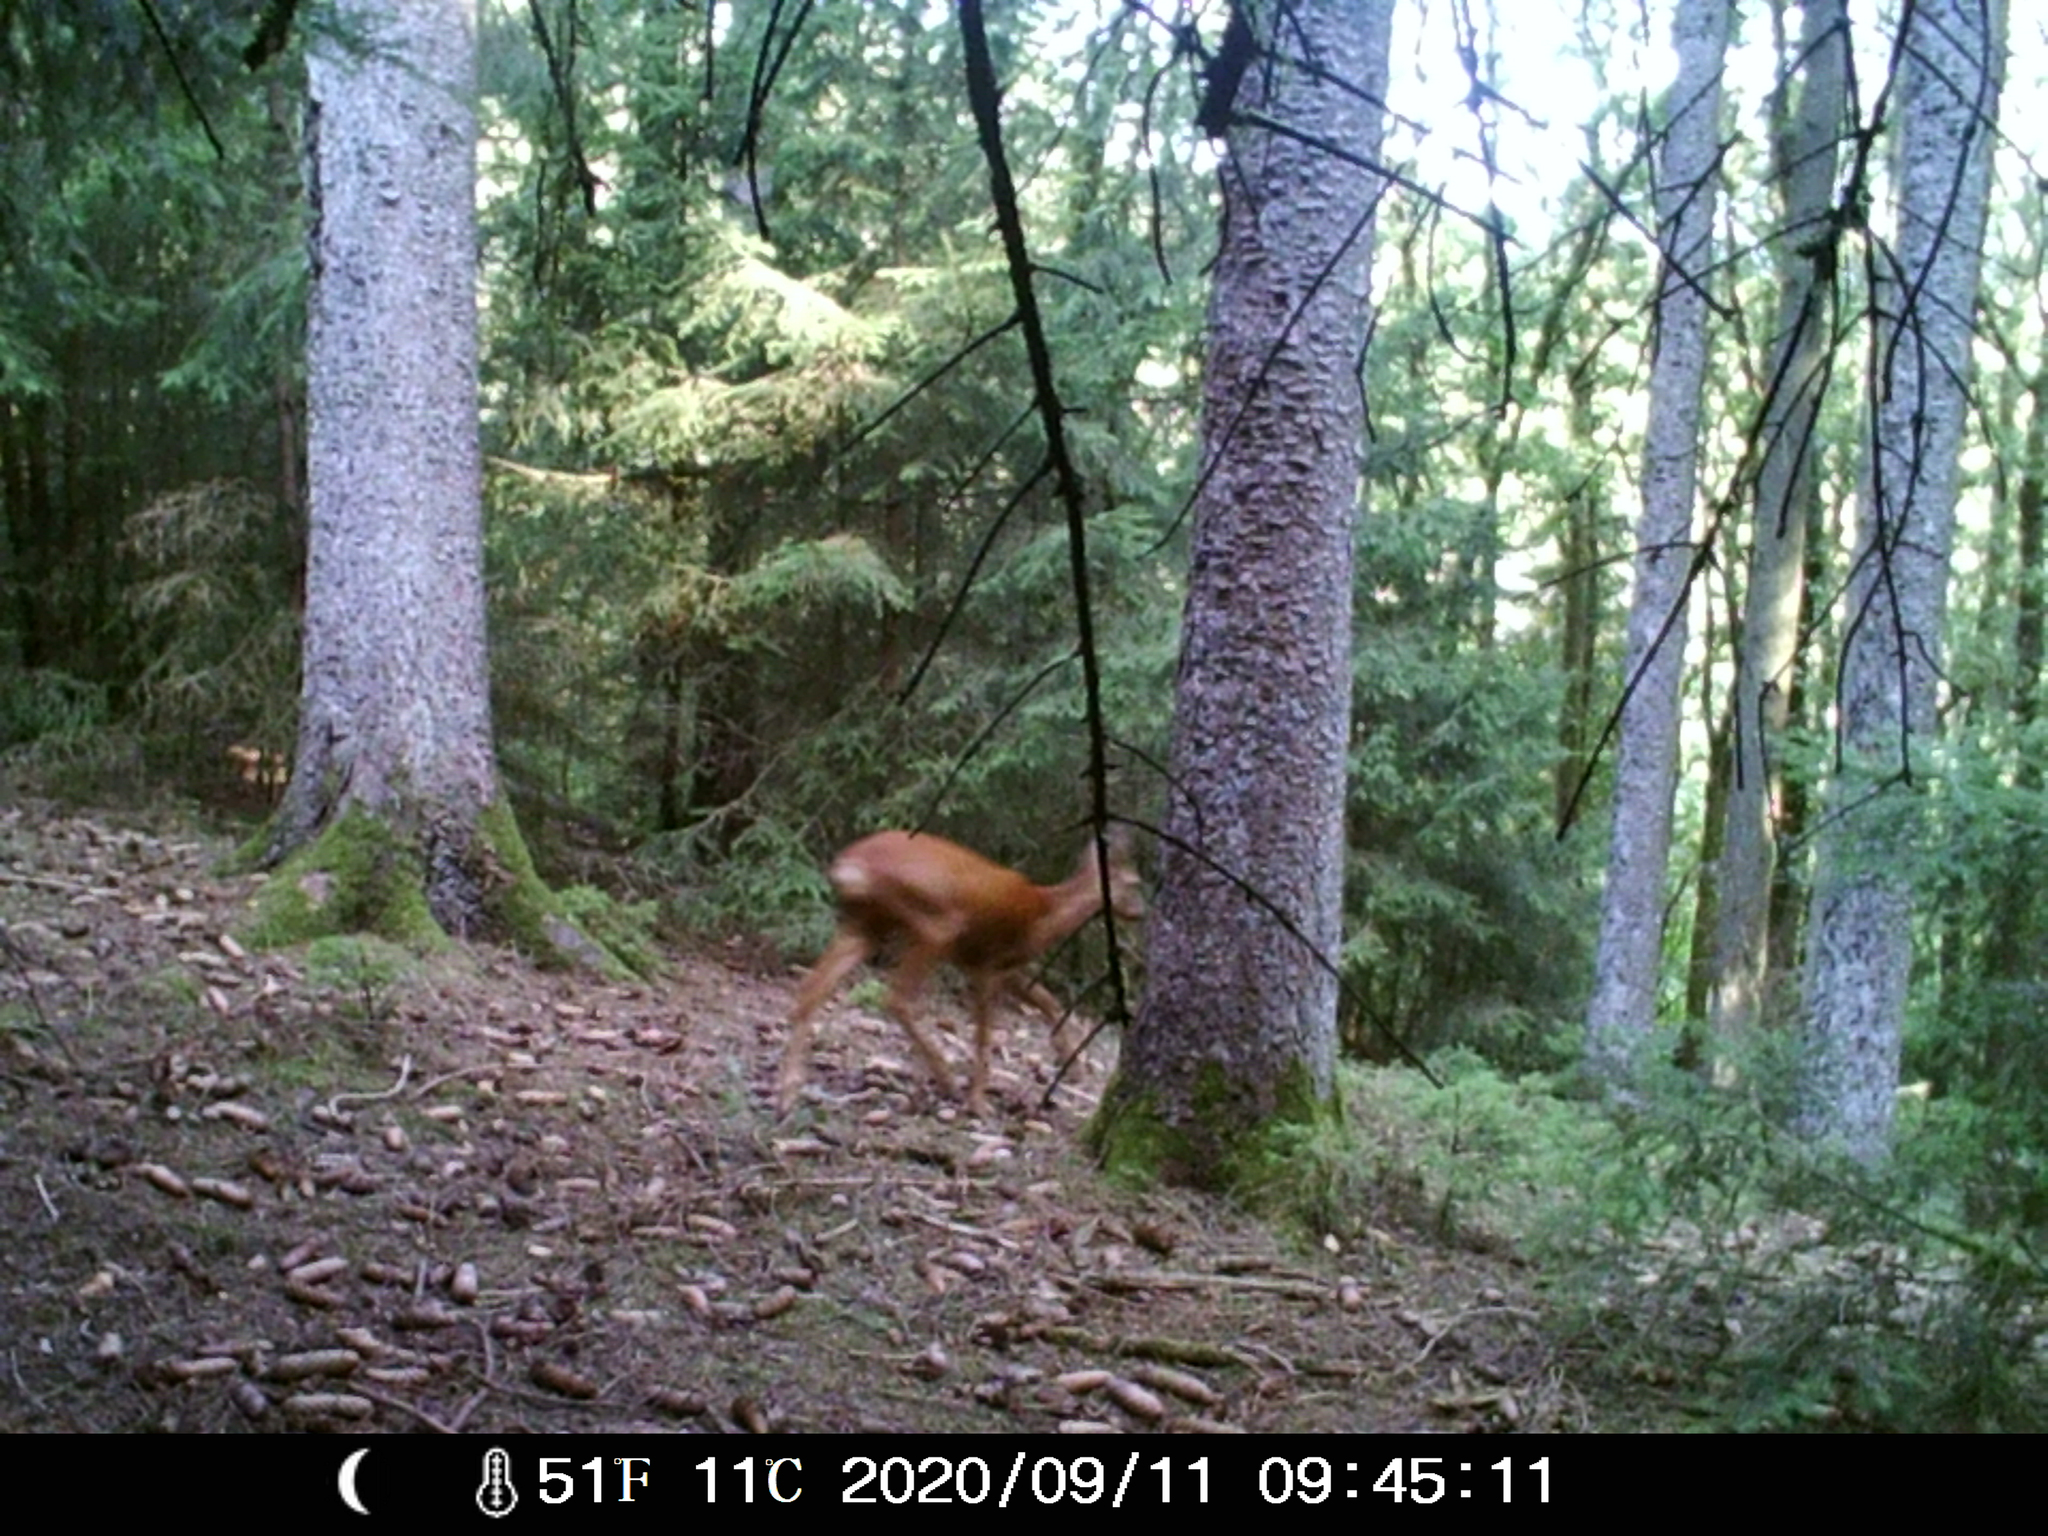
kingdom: Animalia
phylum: Chordata
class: Mammalia
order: Artiodactyla
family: Cervidae
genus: Capreolus
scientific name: Capreolus capreolus
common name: Western roe deer
